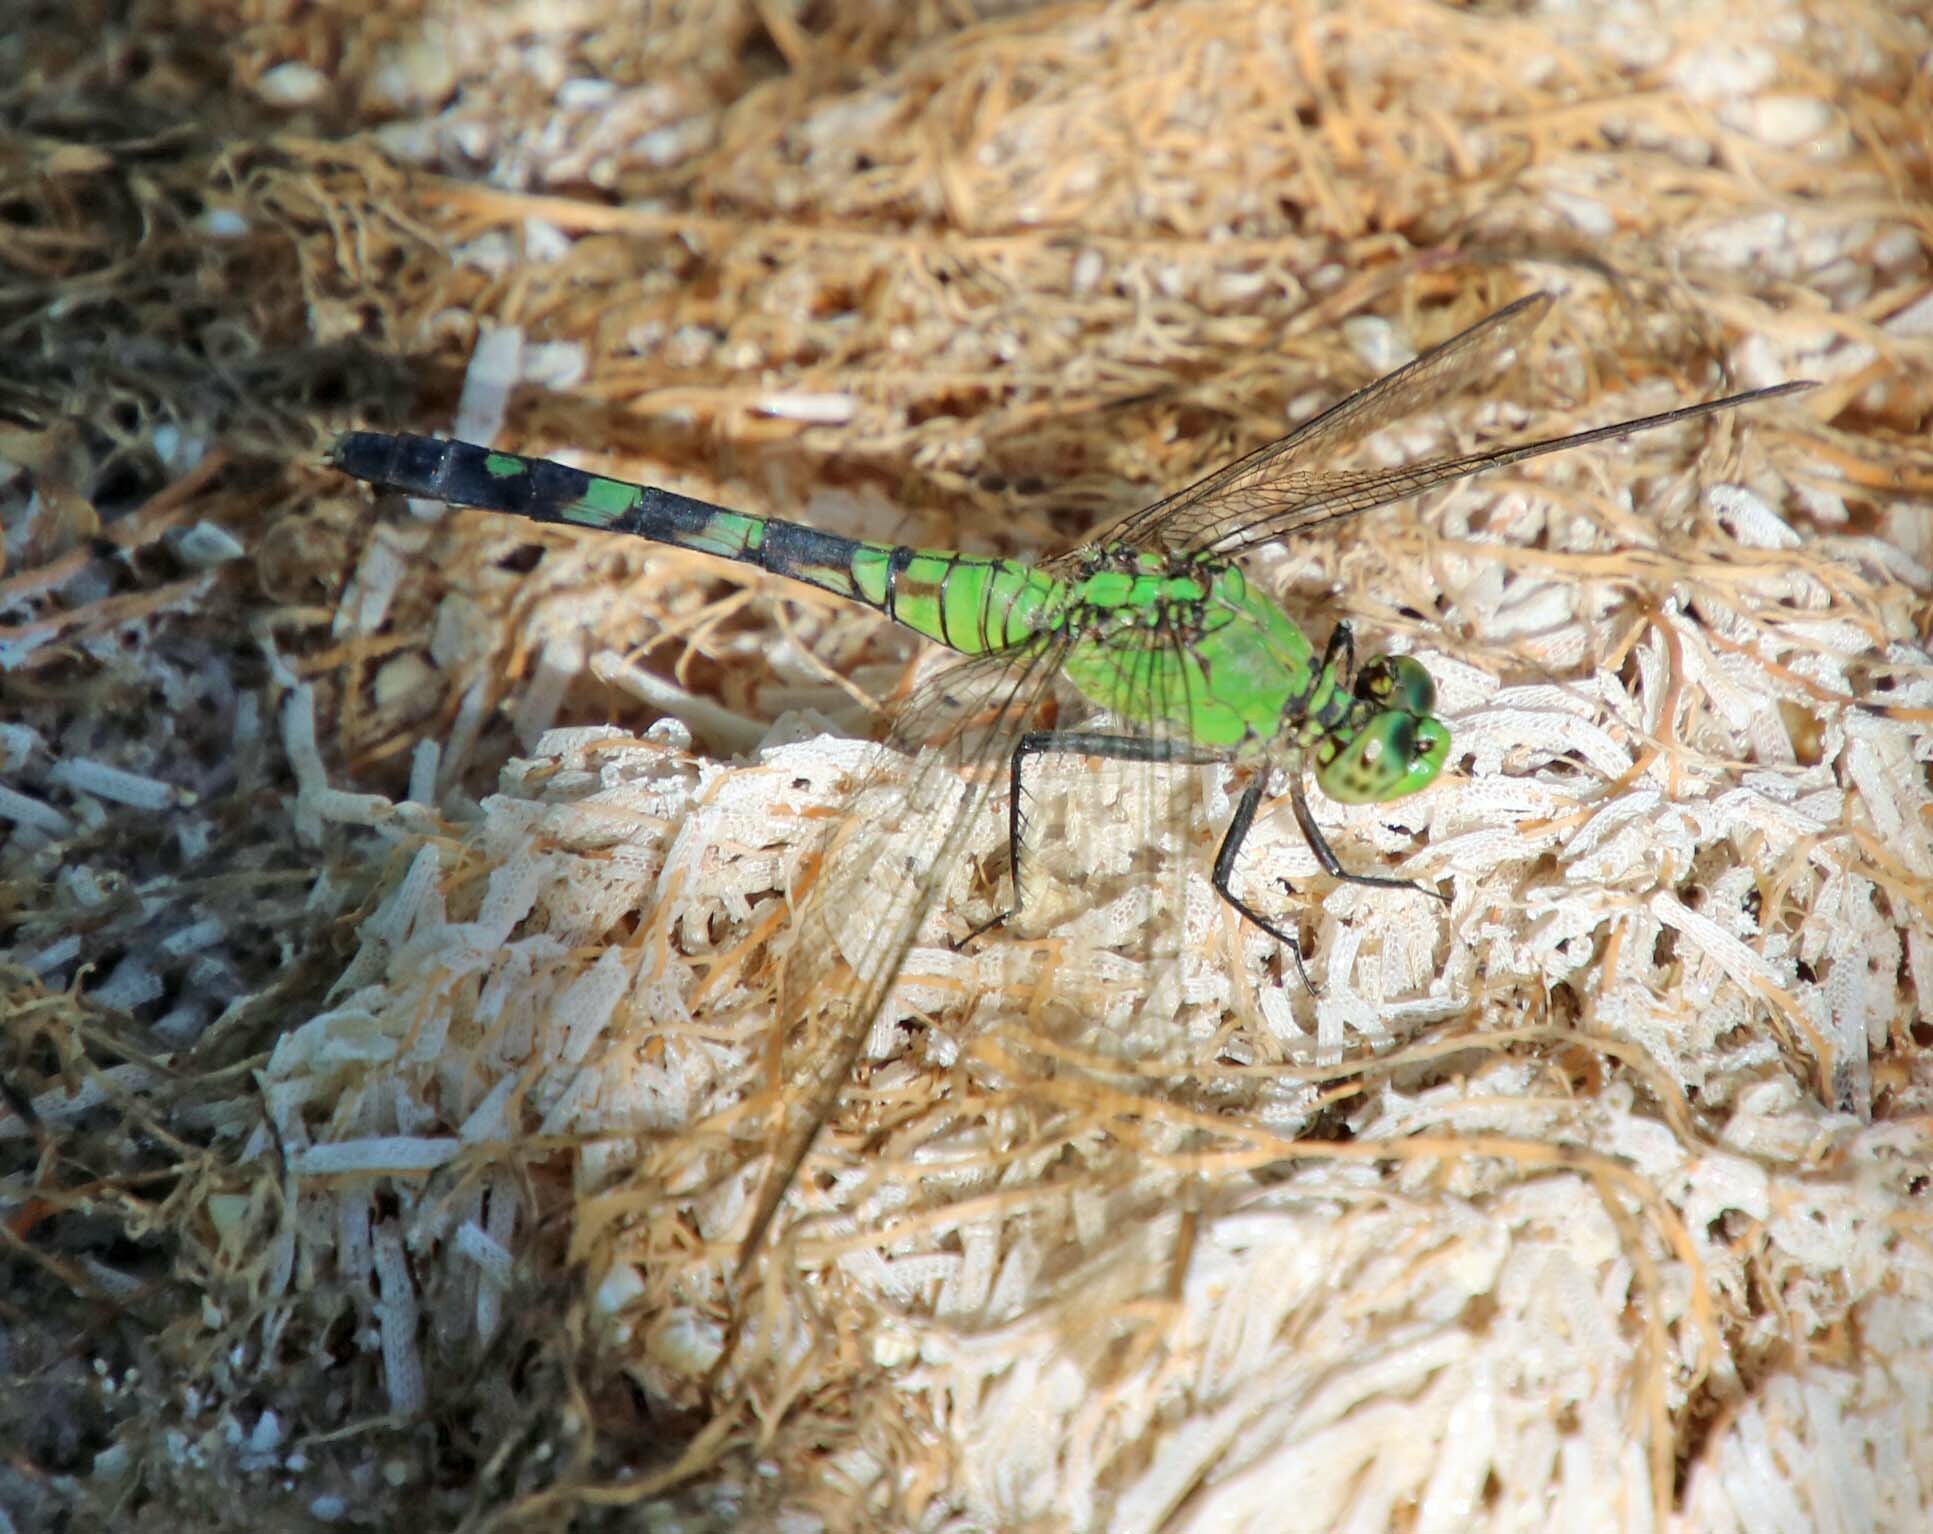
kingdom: Animalia
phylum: Arthropoda
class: Insecta
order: Odonata
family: Libellulidae
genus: Erythemis
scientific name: Erythemis simplicicollis
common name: Eastern pondhawk
